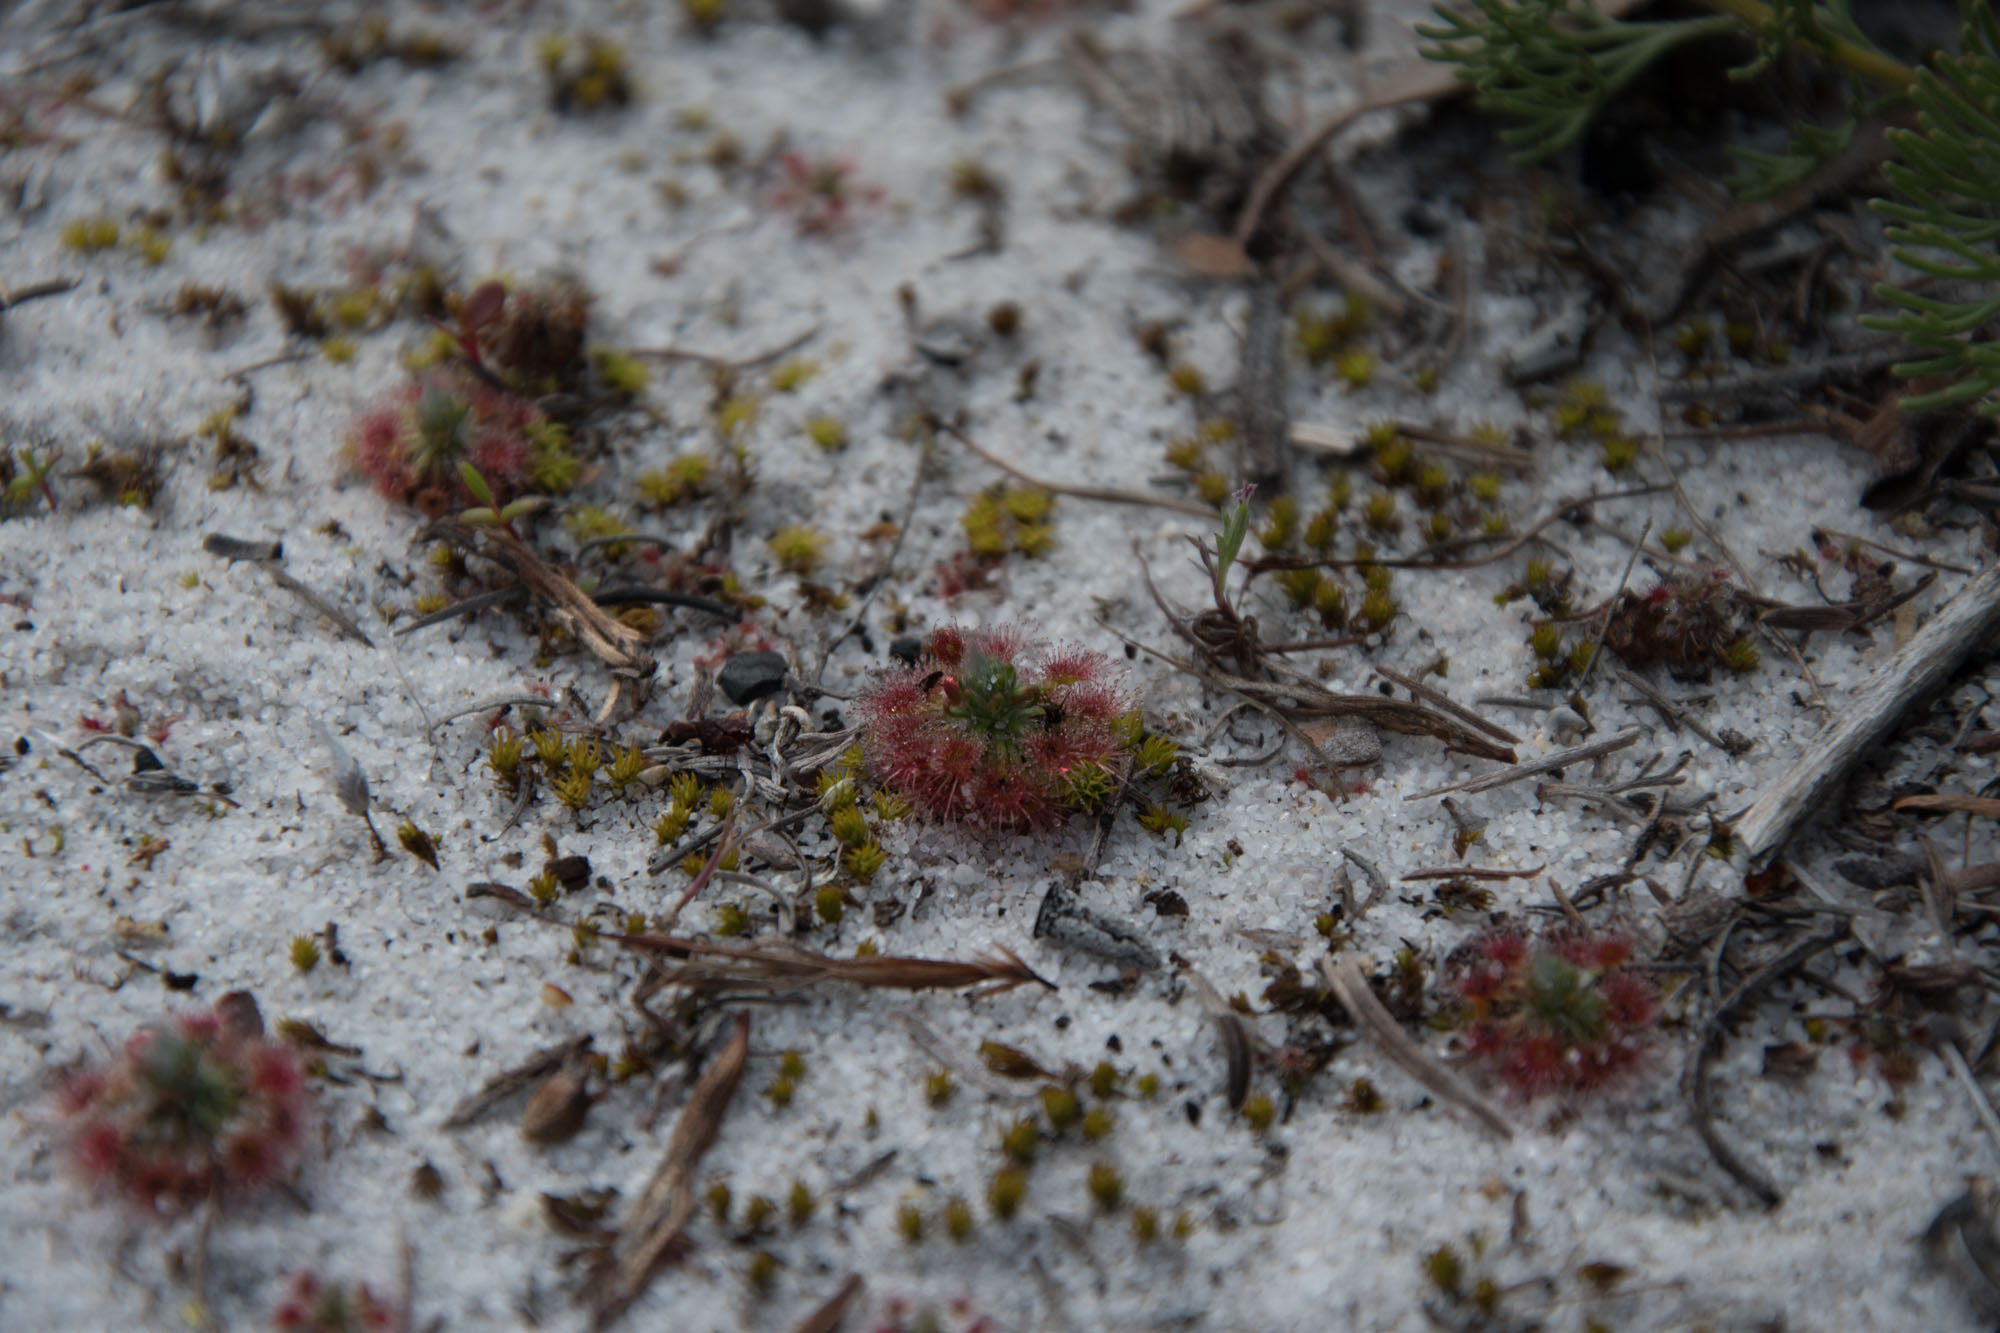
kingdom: Plantae
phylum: Tracheophyta
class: Magnoliopsida
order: Caryophyllales
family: Droseraceae
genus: Drosera
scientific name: Drosera paleacea
